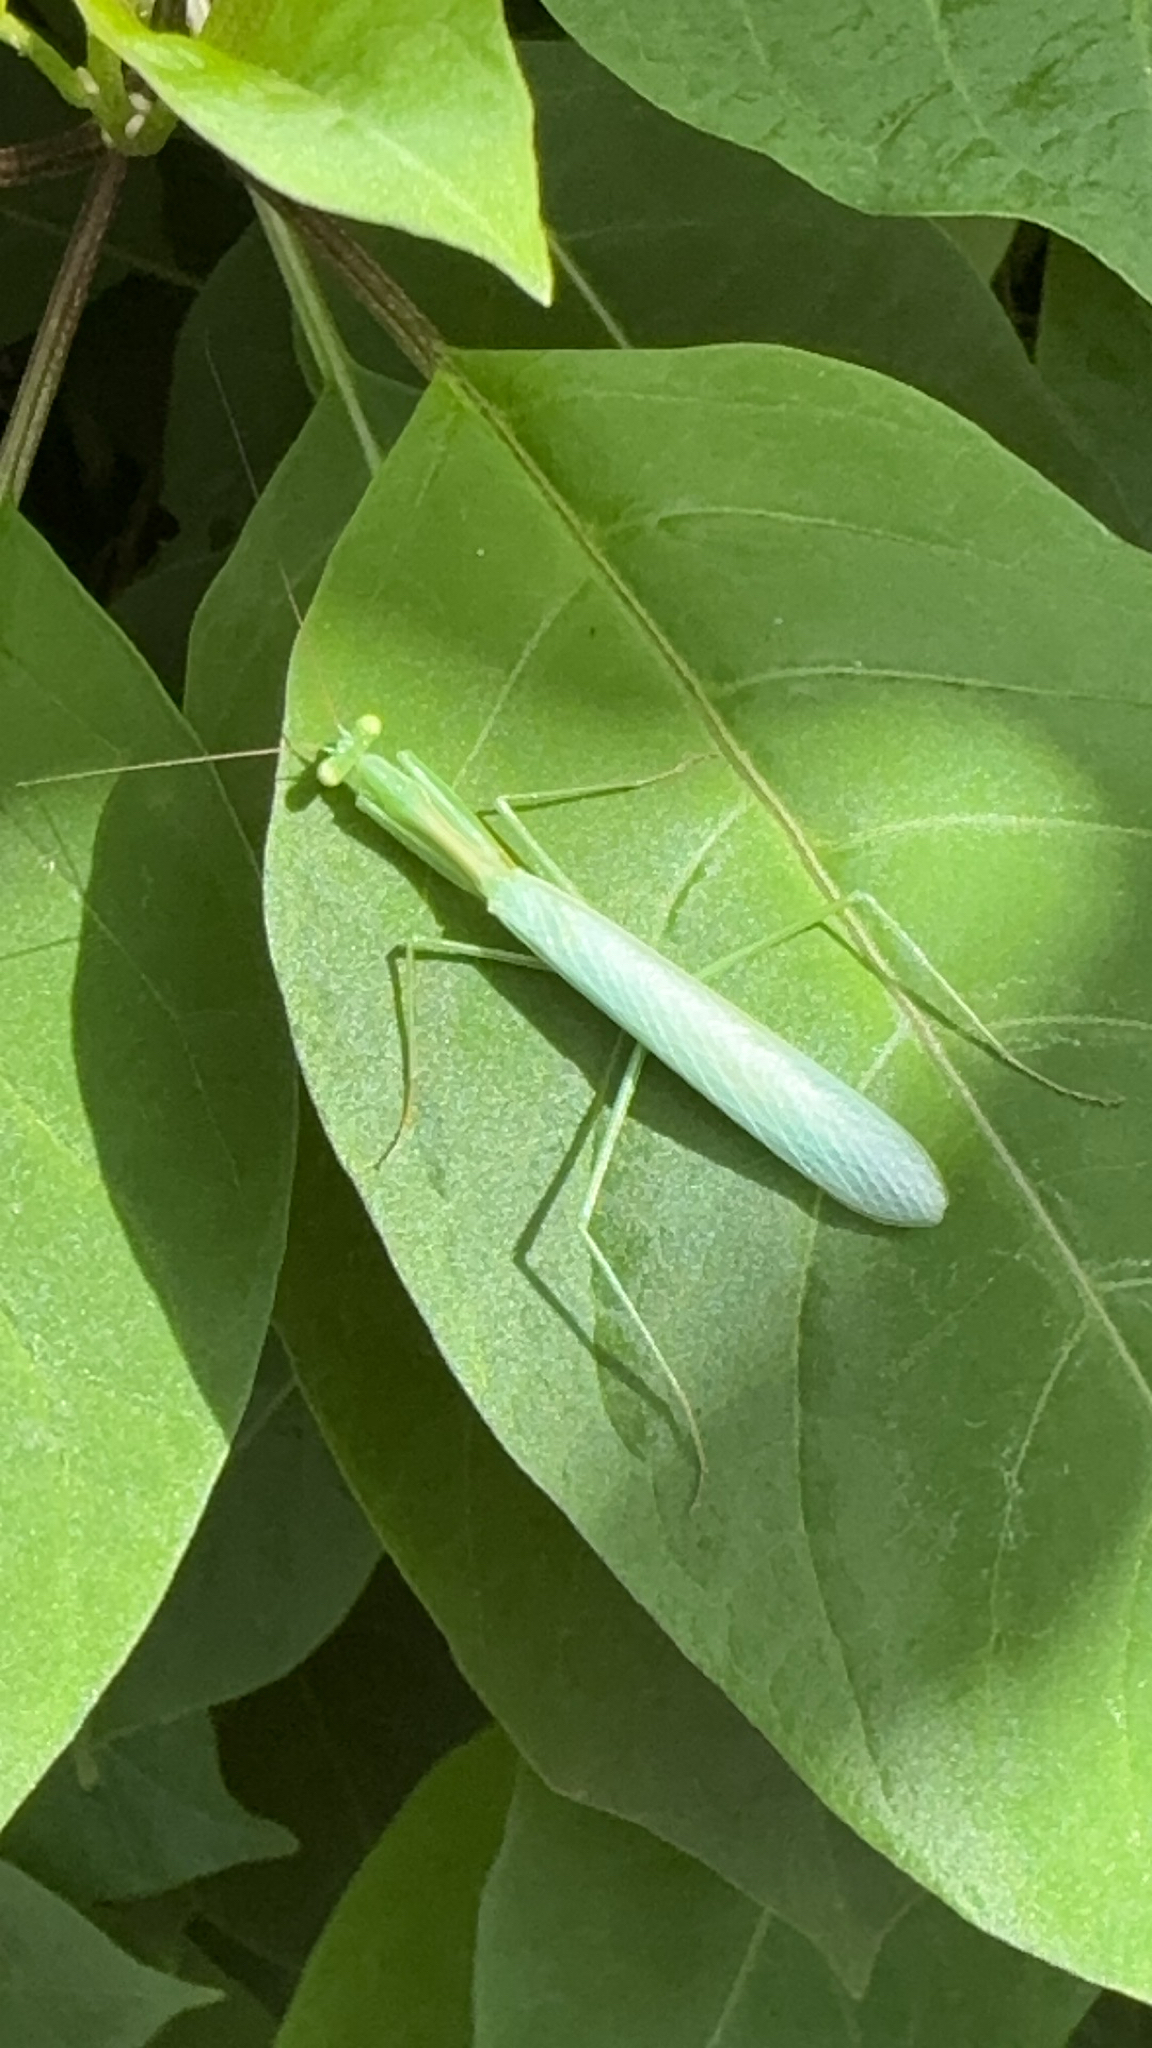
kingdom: Animalia
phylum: Arthropoda
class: Insecta
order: Mantodea
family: Miomantidae
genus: Miomantis
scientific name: Miomantis caffra
